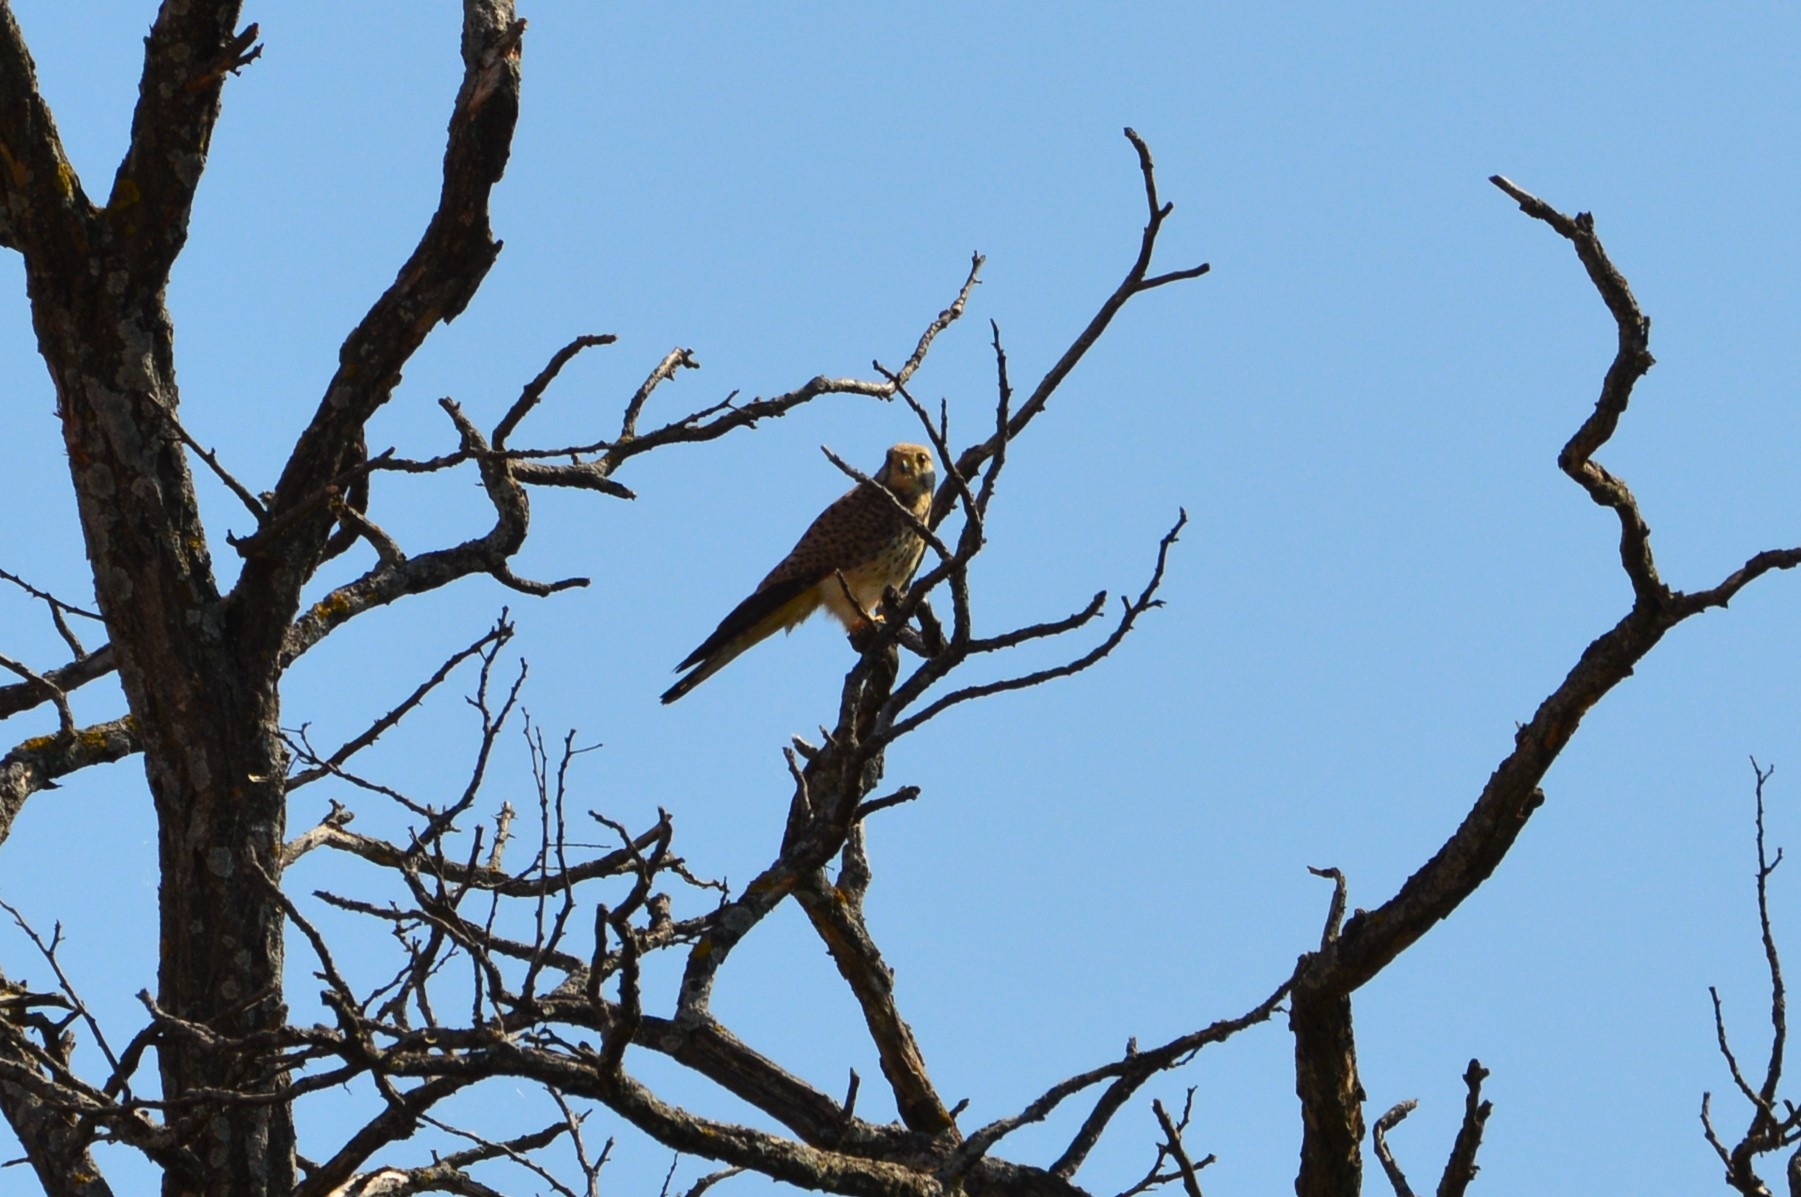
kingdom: Animalia
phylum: Chordata
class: Aves
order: Falconiformes
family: Falconidae
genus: Falco
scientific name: Falco tinnunculus
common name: Common kestrel
